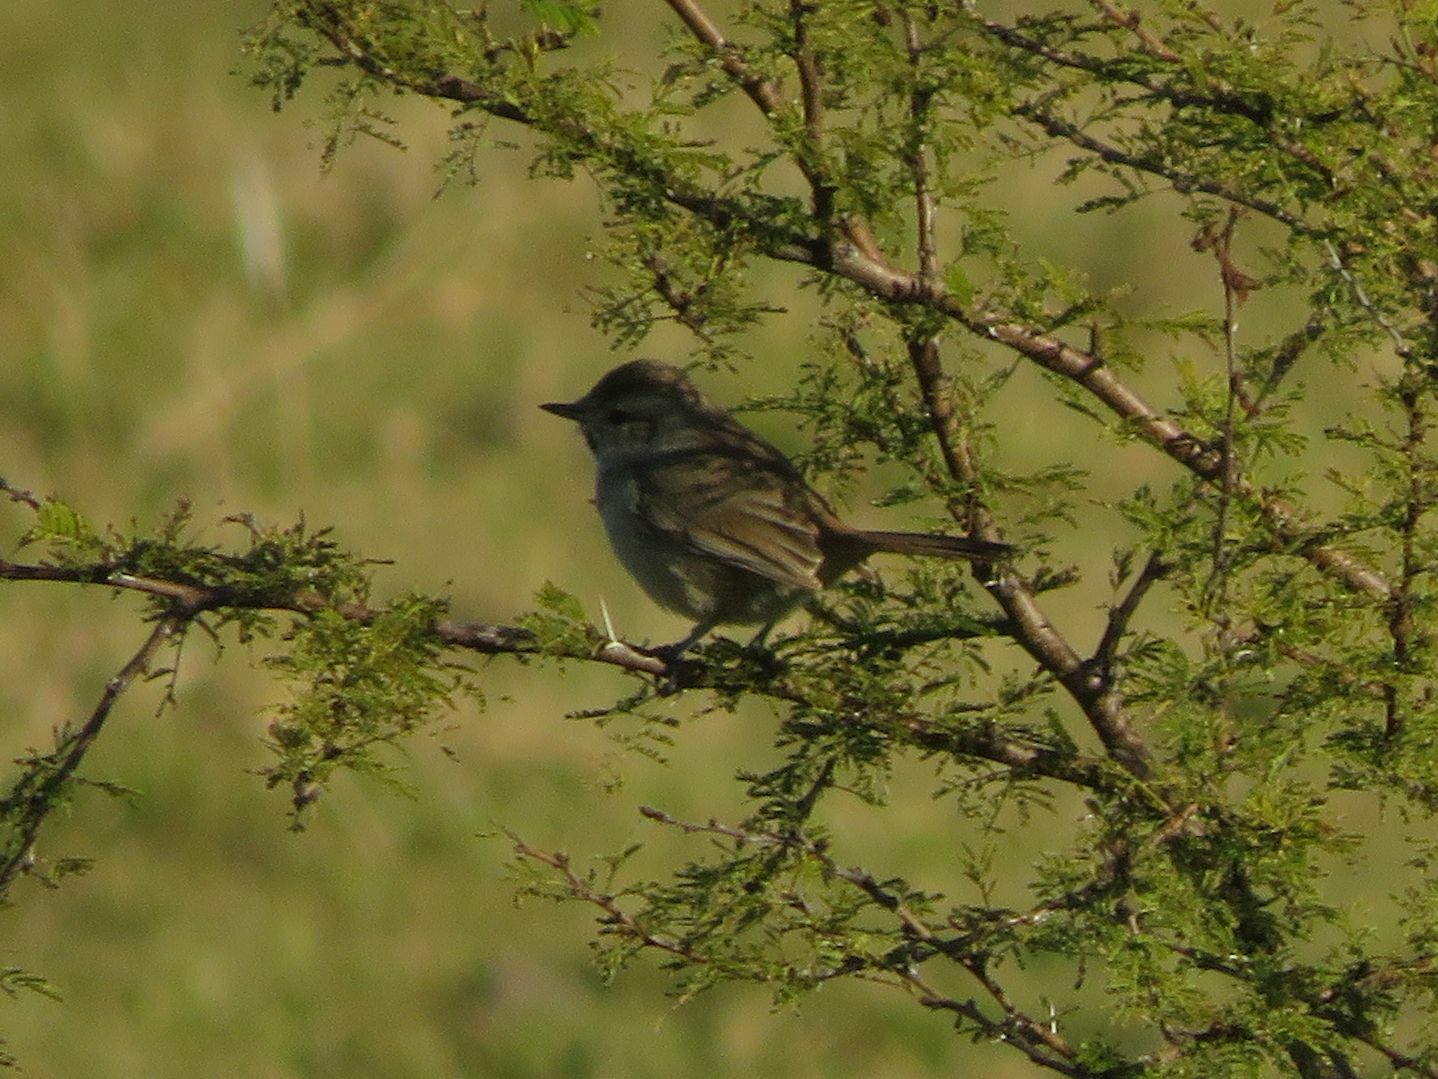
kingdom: Animalia
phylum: Chordata
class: Aves
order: Passeriformes
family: Furnariidae
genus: Asthenes
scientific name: Asthenes baeri
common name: Short-billed canastero
